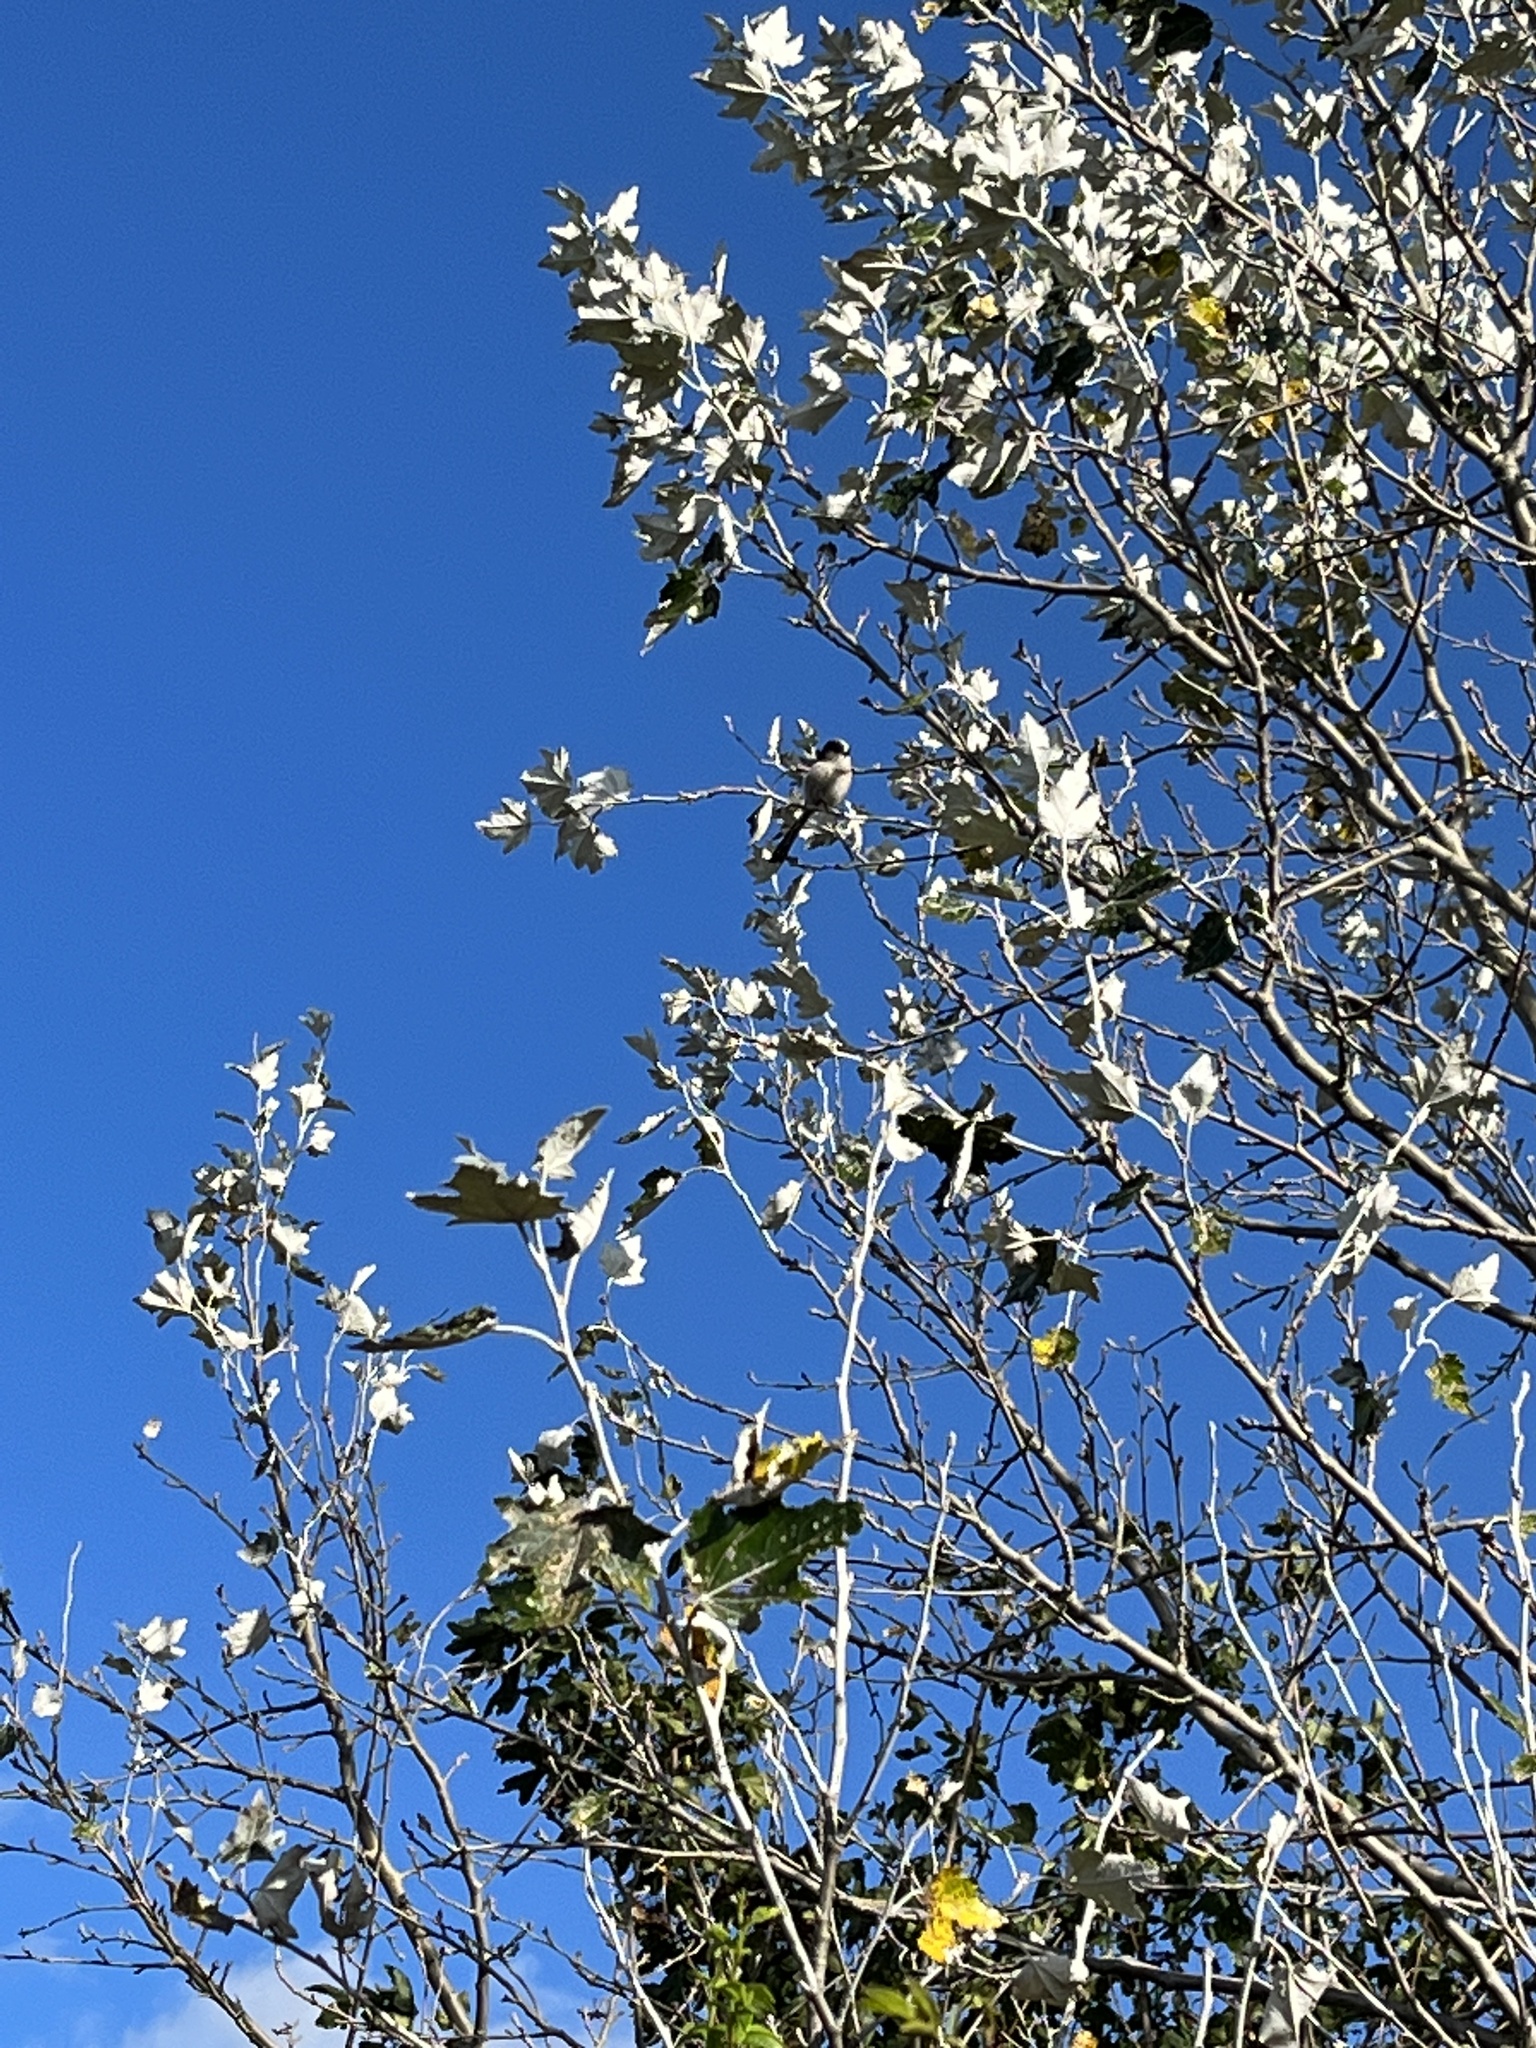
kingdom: Animalia
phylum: Chordata
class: Aves
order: Passeriformes
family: Aegithalidae
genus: Aegithalos
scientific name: Aegithalos caudatus
